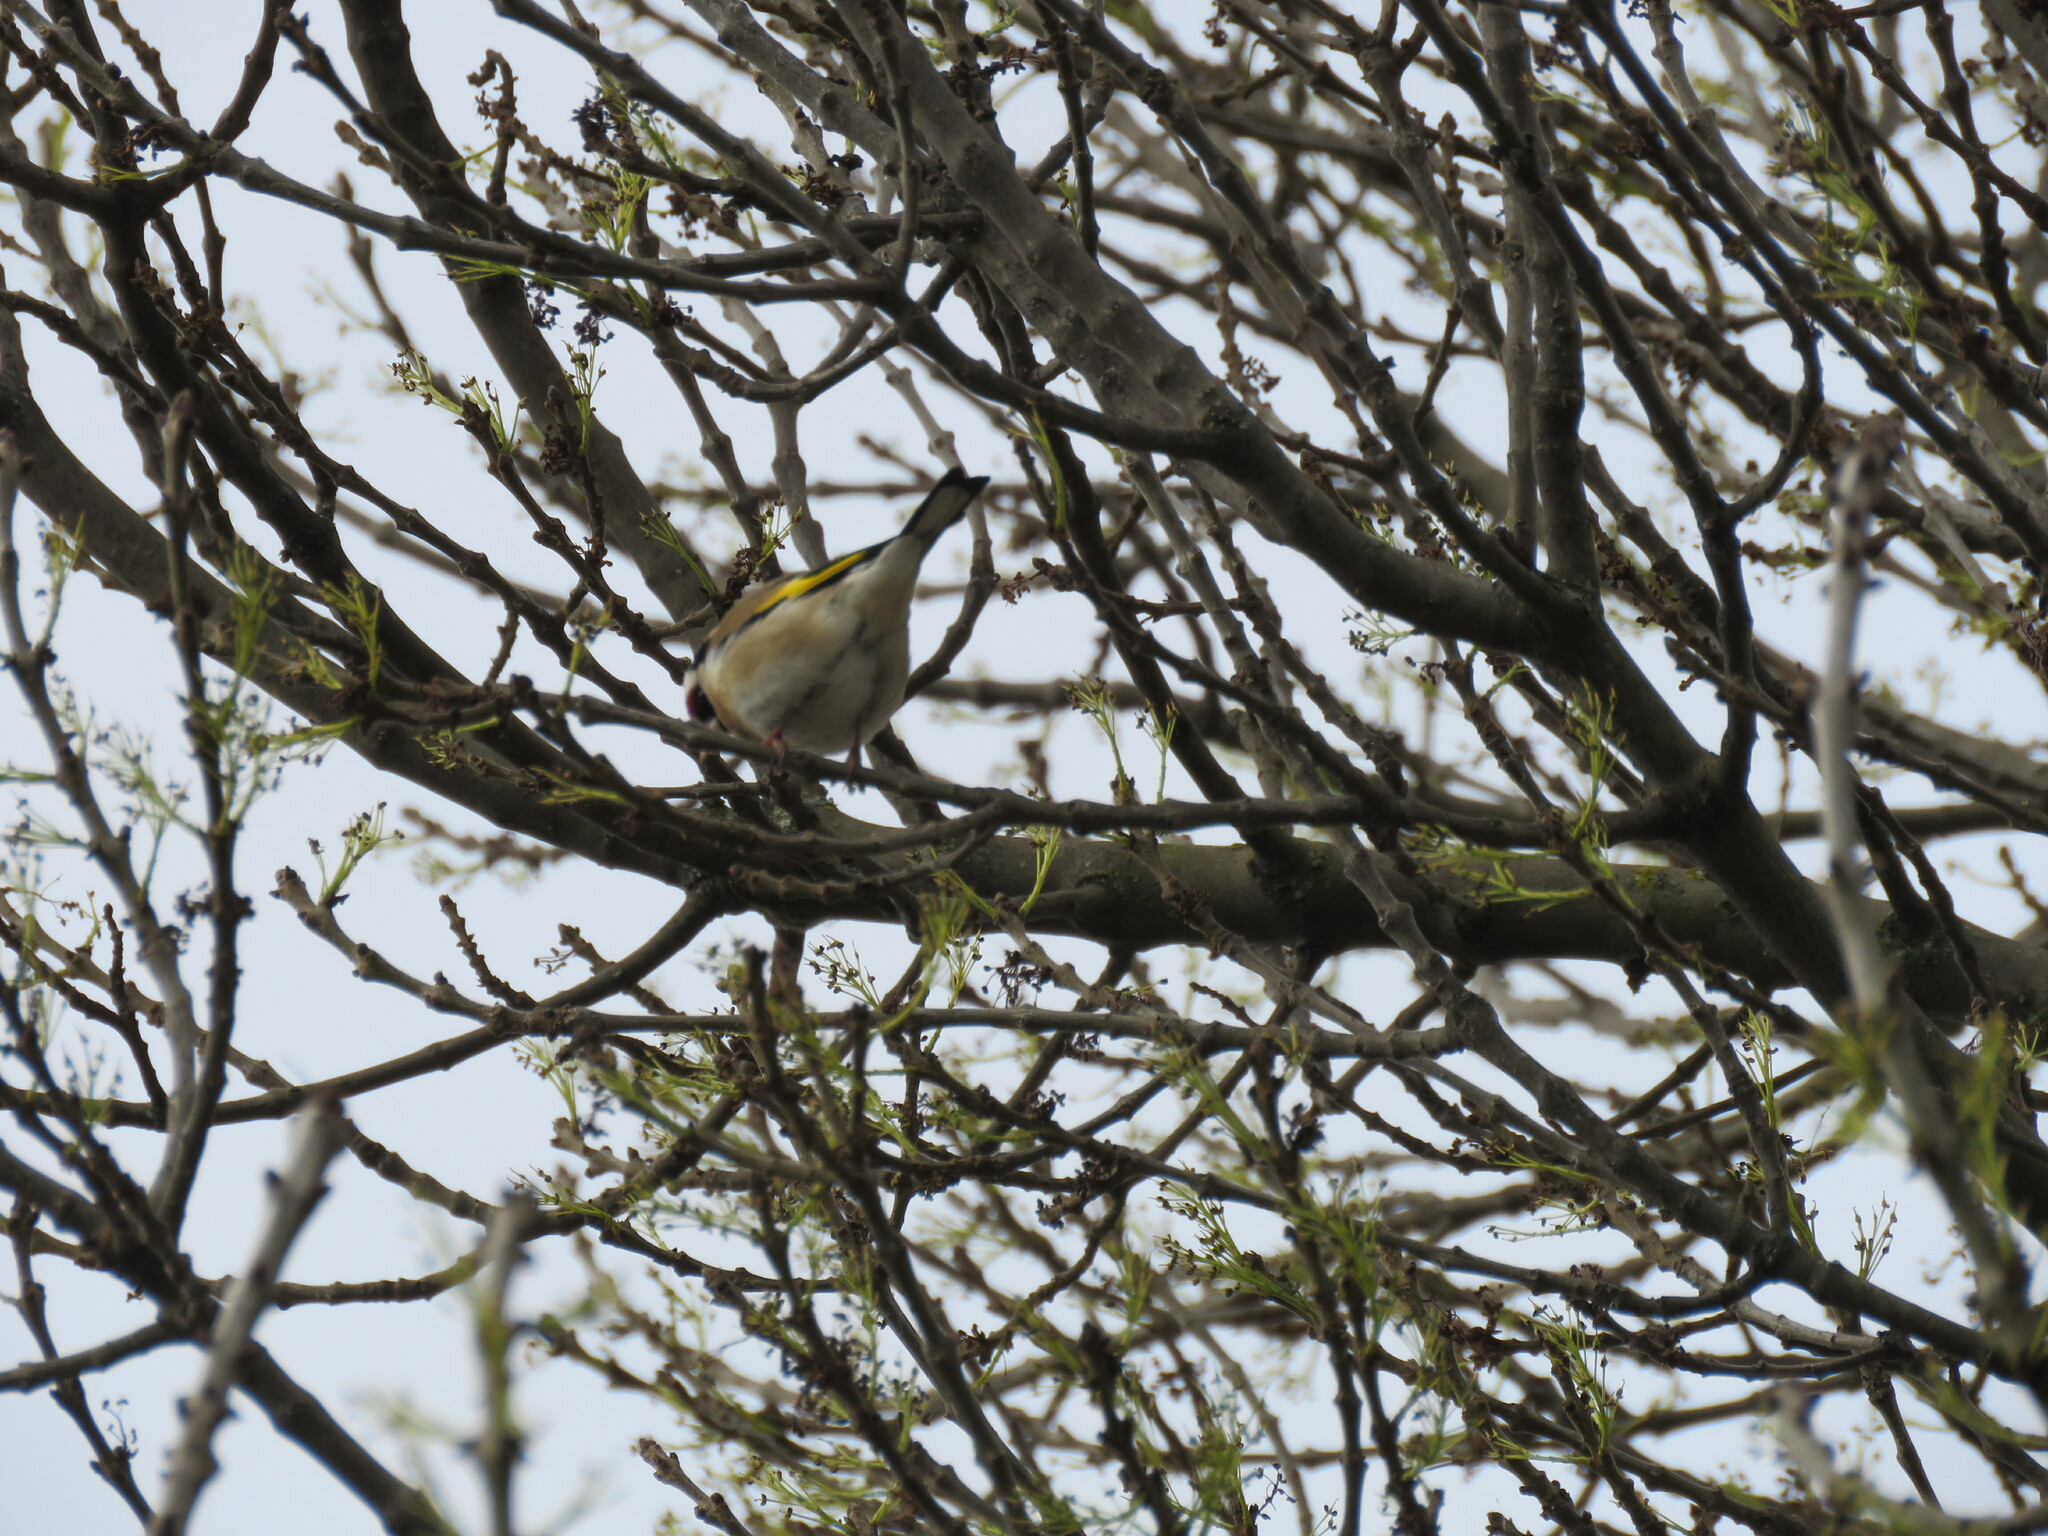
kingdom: Animalia
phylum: Chordata
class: Aves
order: Passeriformes
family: Fringillidae
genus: Carduelis
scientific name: Carduelis carduelis
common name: European goldfinch
